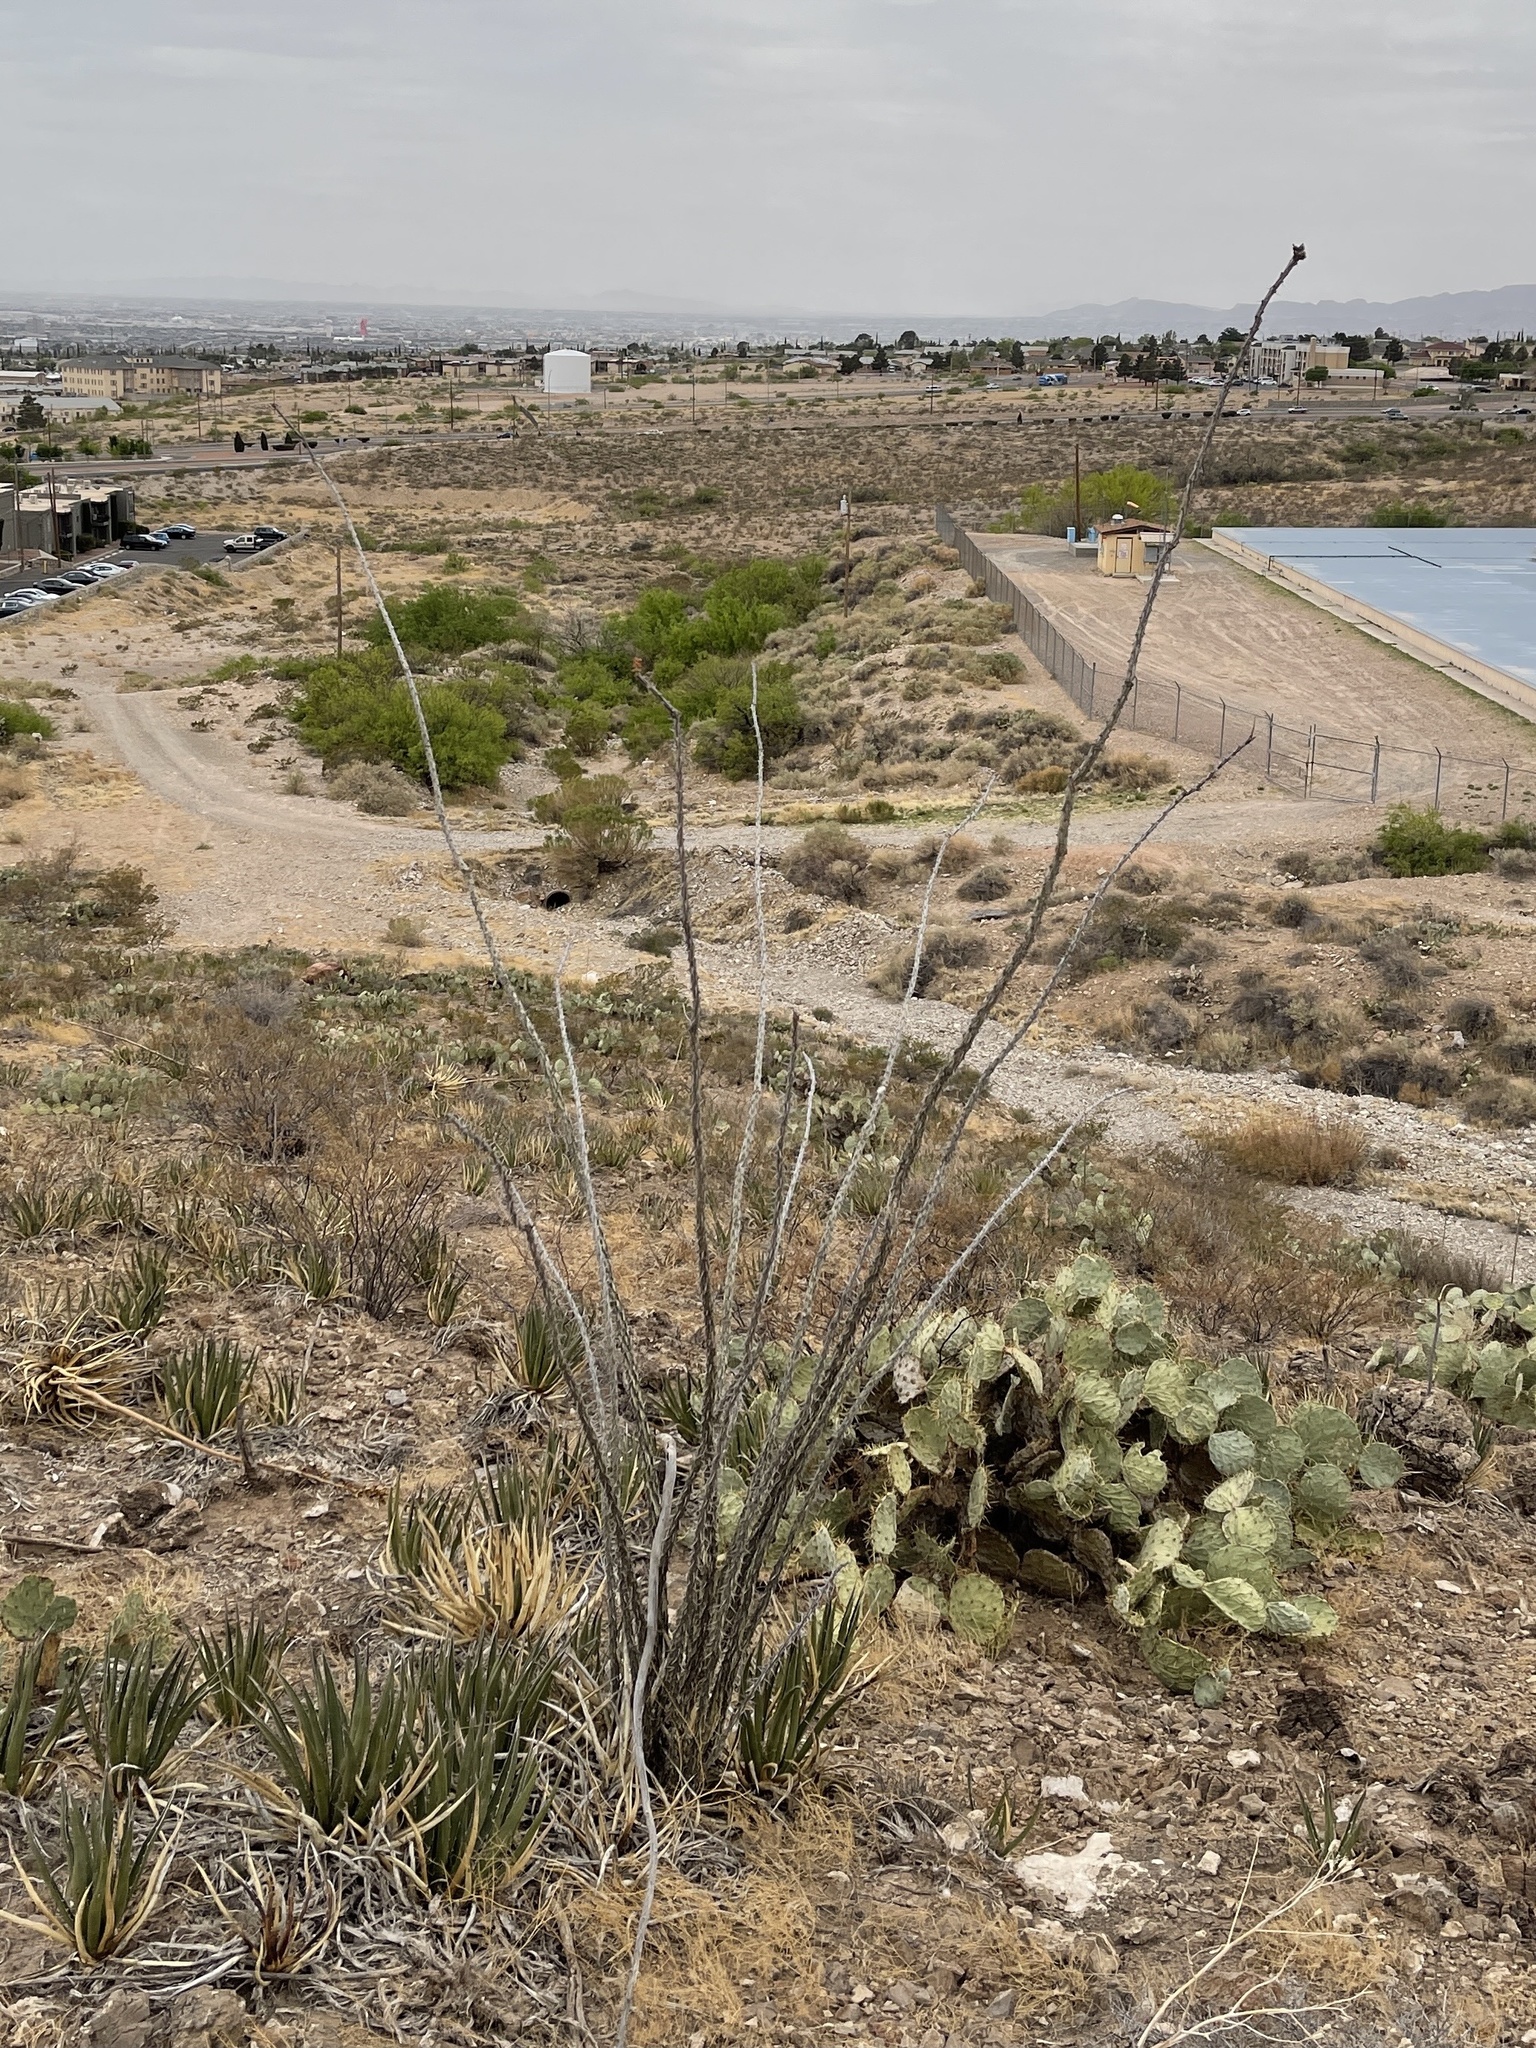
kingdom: Plantae
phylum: Tracheophyta
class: Magnoliopsida
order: Ericales
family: Fouquieriaceae
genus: Fouquieria
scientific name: Fouquieria splendens
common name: Vine-cactus
